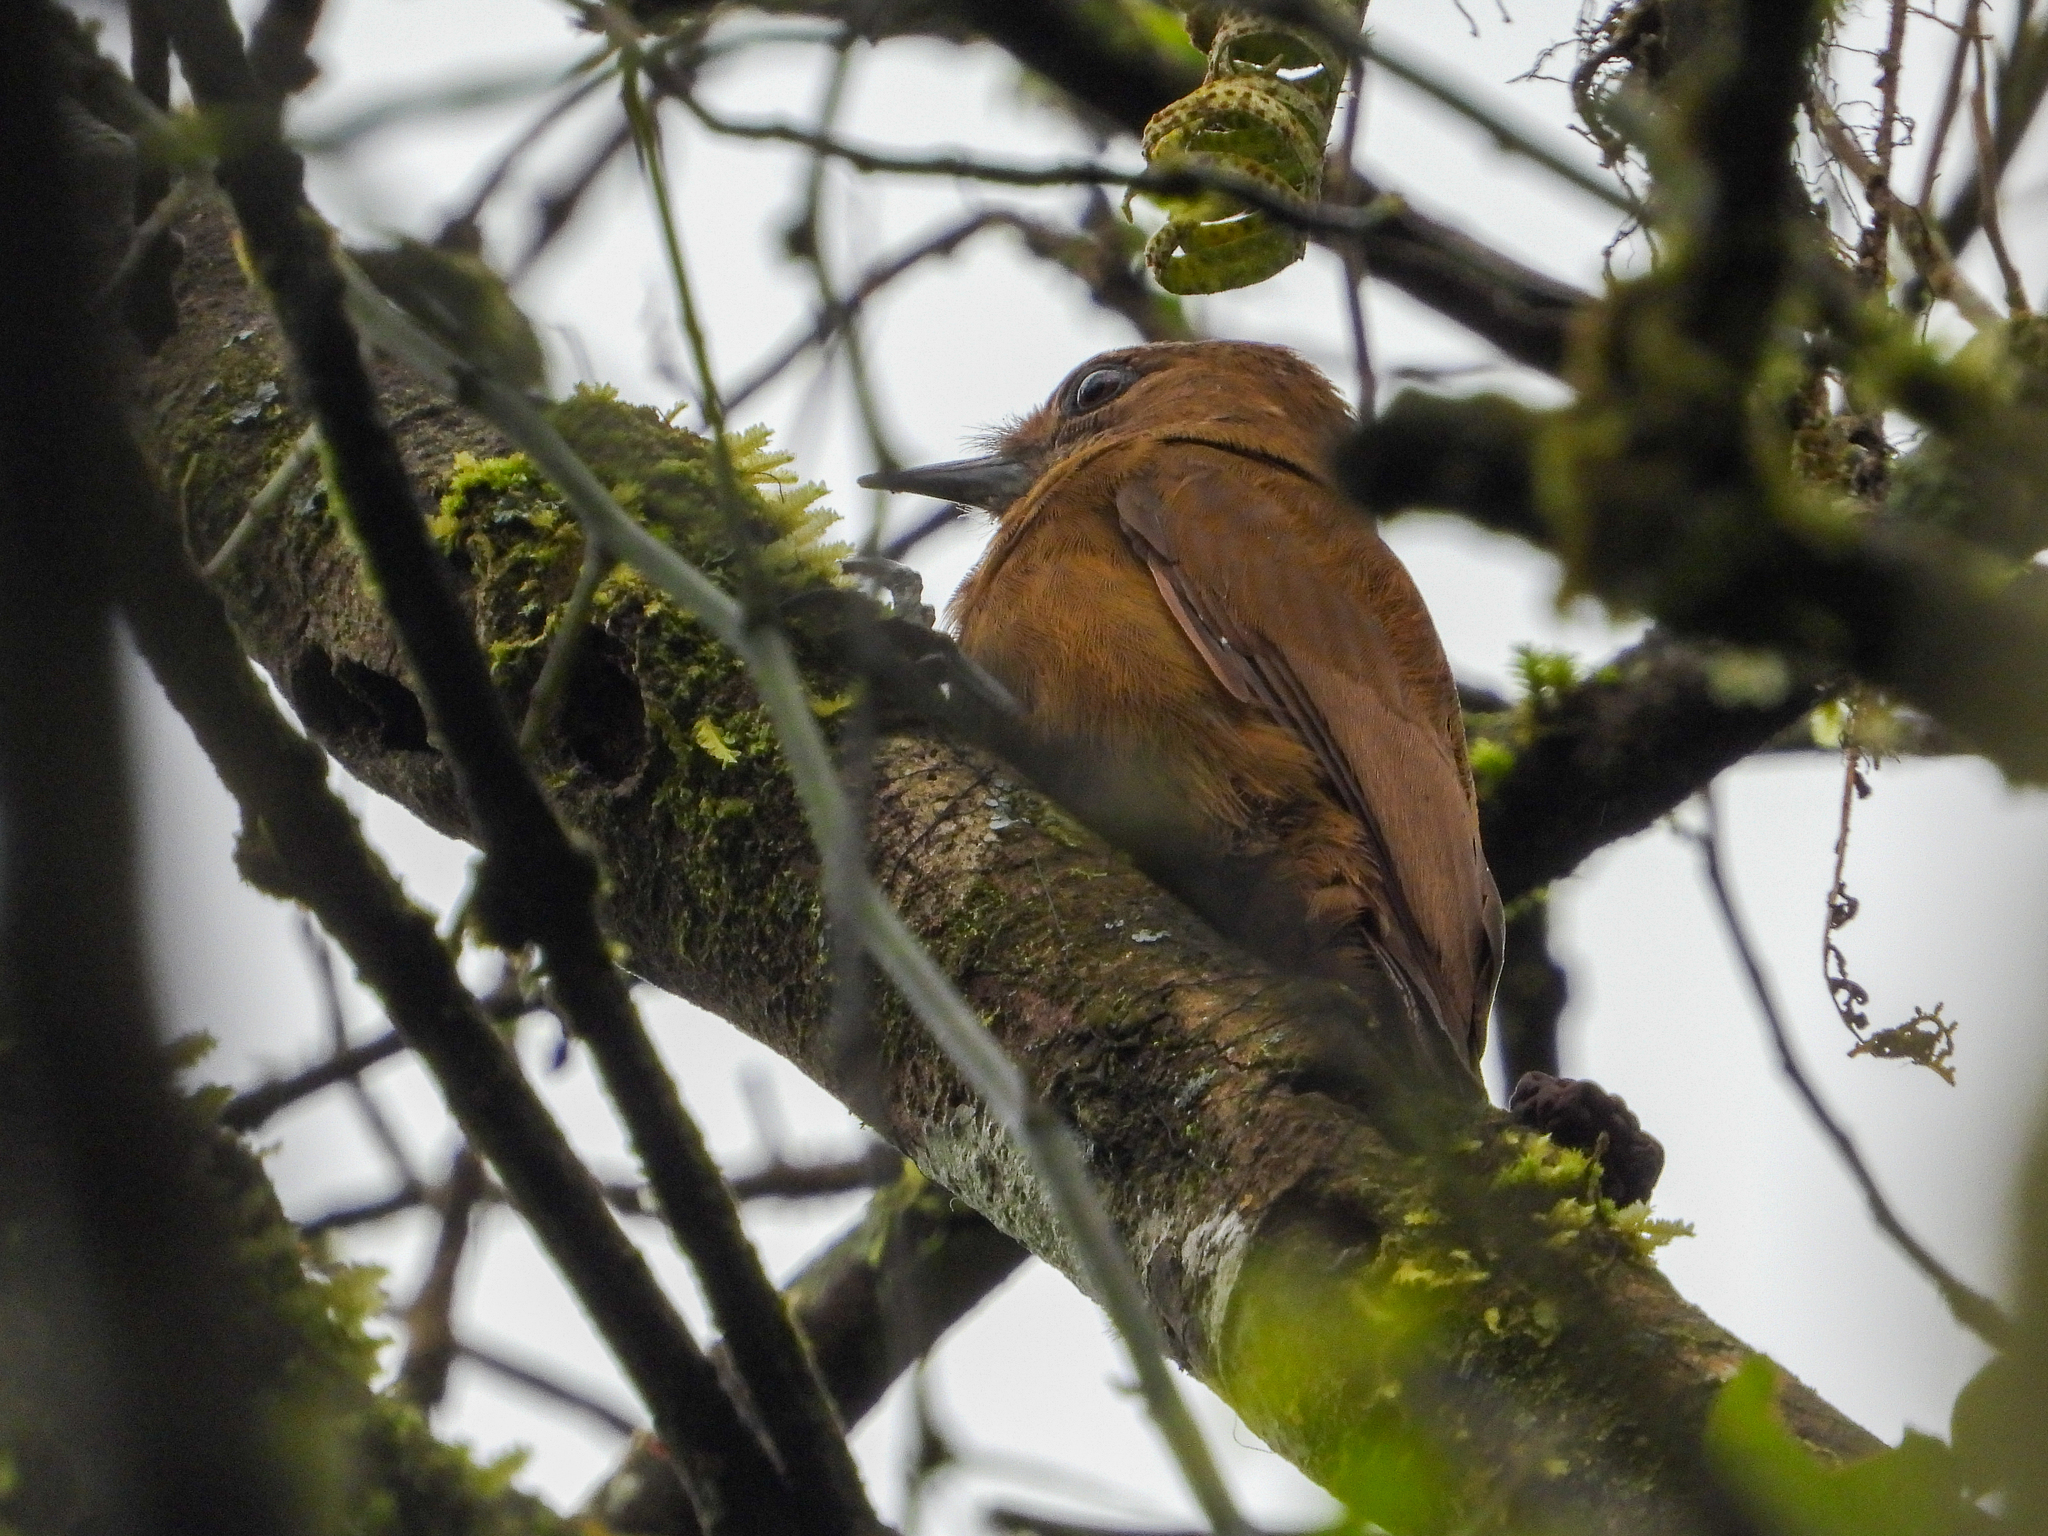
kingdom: Animalia
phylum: Chordata
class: Aves
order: Piciformes
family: Picidae
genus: Leuconotopicus
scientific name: Leuconotopicus fumigatus
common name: Smoky-brown woodpecker
